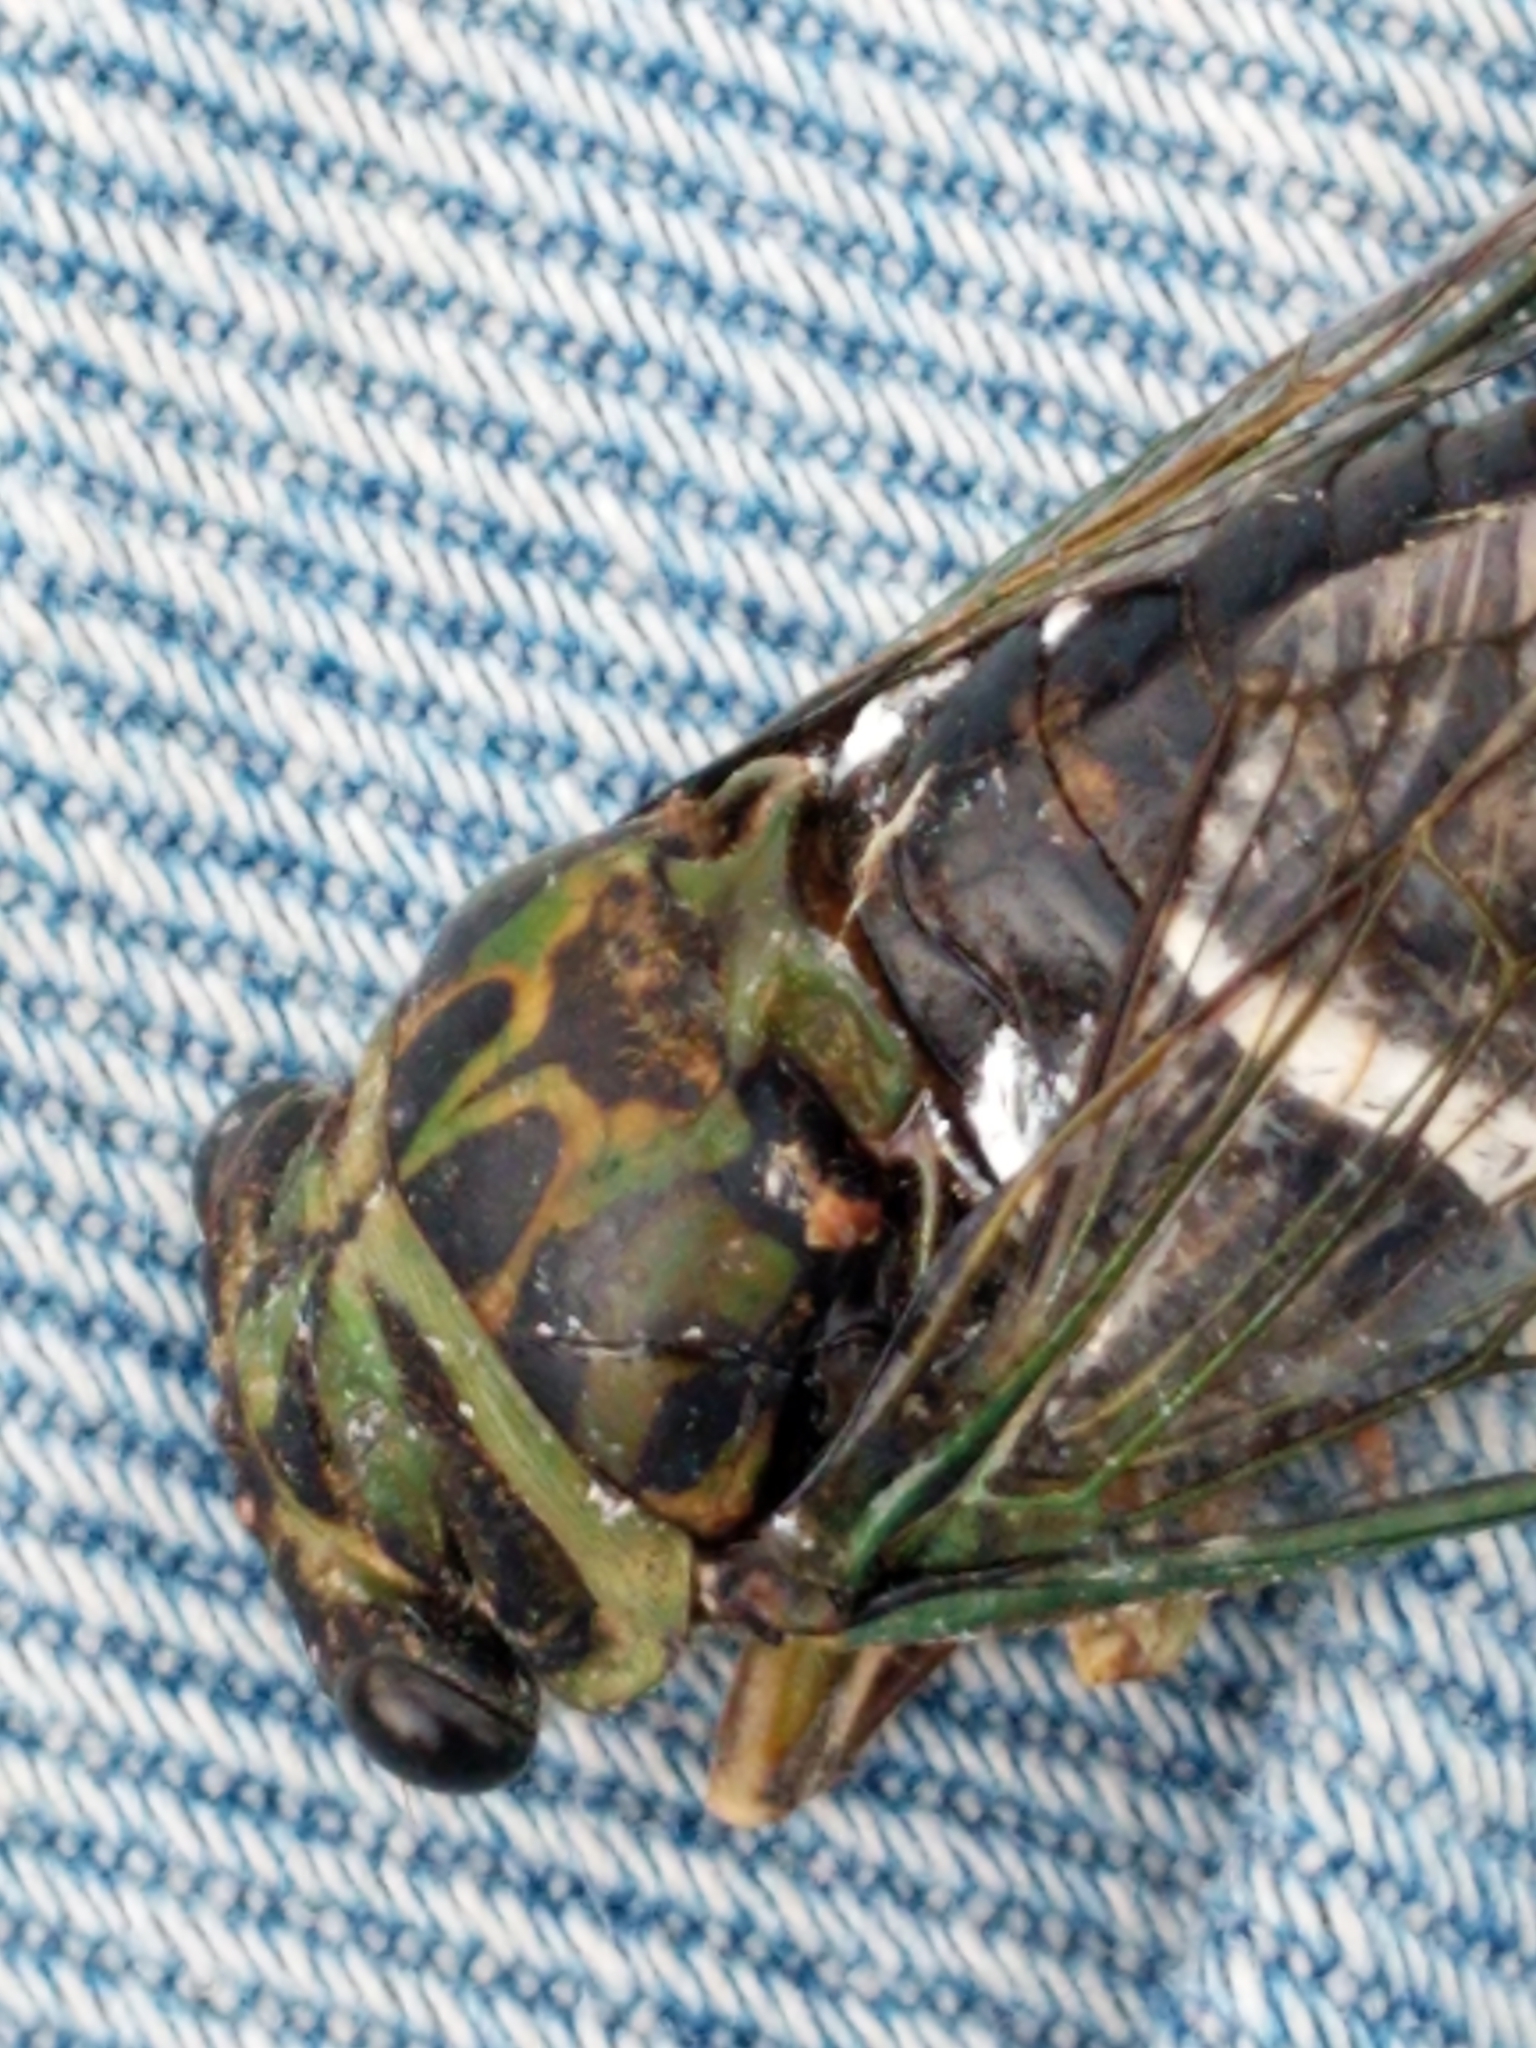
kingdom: Animalia
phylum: Arthropoda
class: Insecta
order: Hemiptera
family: Cicadidae
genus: Neotibicen
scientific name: Neotibicen latifasciatus
